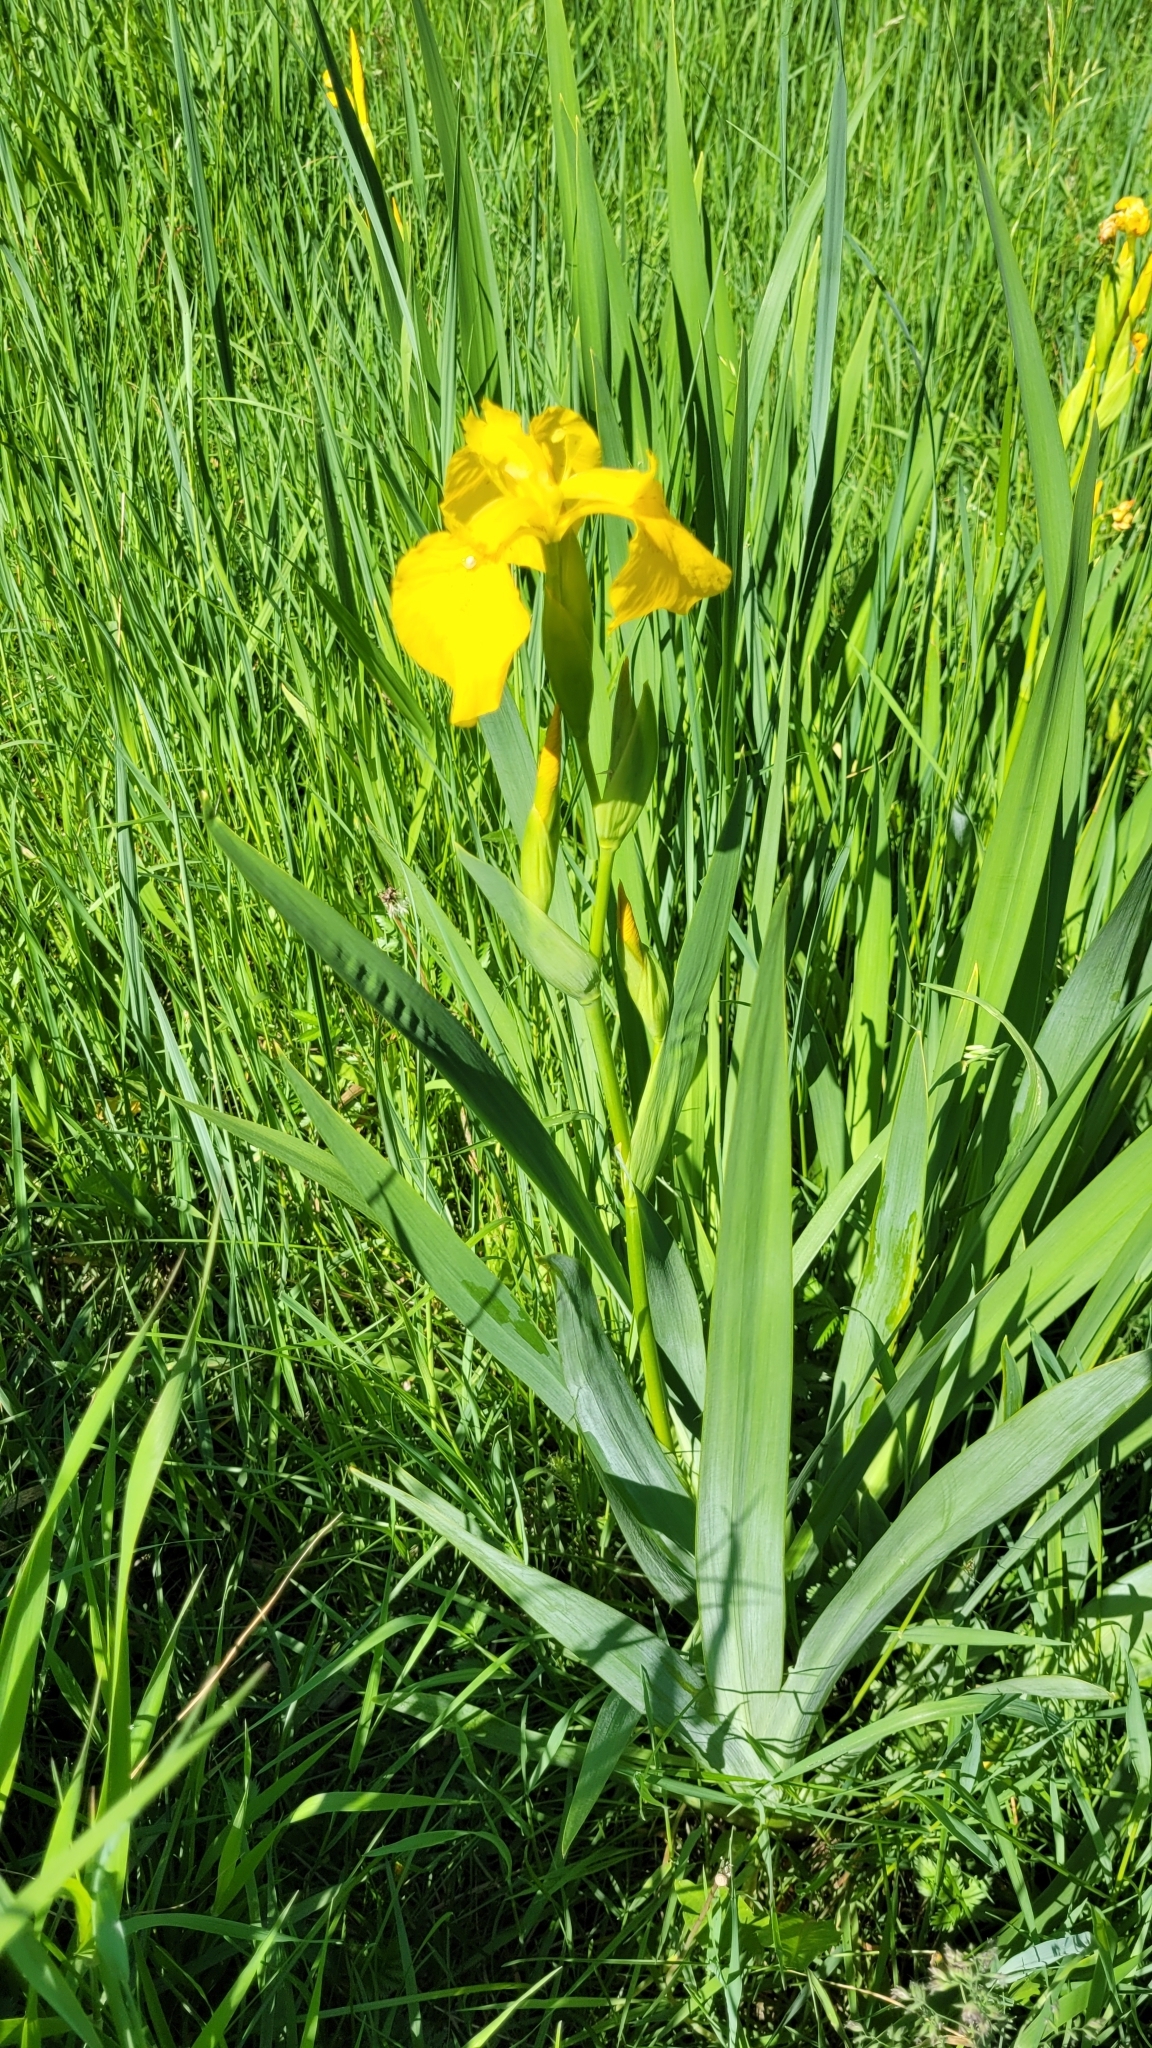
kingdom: Plantae
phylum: Tracheophyta
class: Liliopsida
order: Asparagales
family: Iridaceae
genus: Iris
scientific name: Iris pseudacorus
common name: Yellow flag
